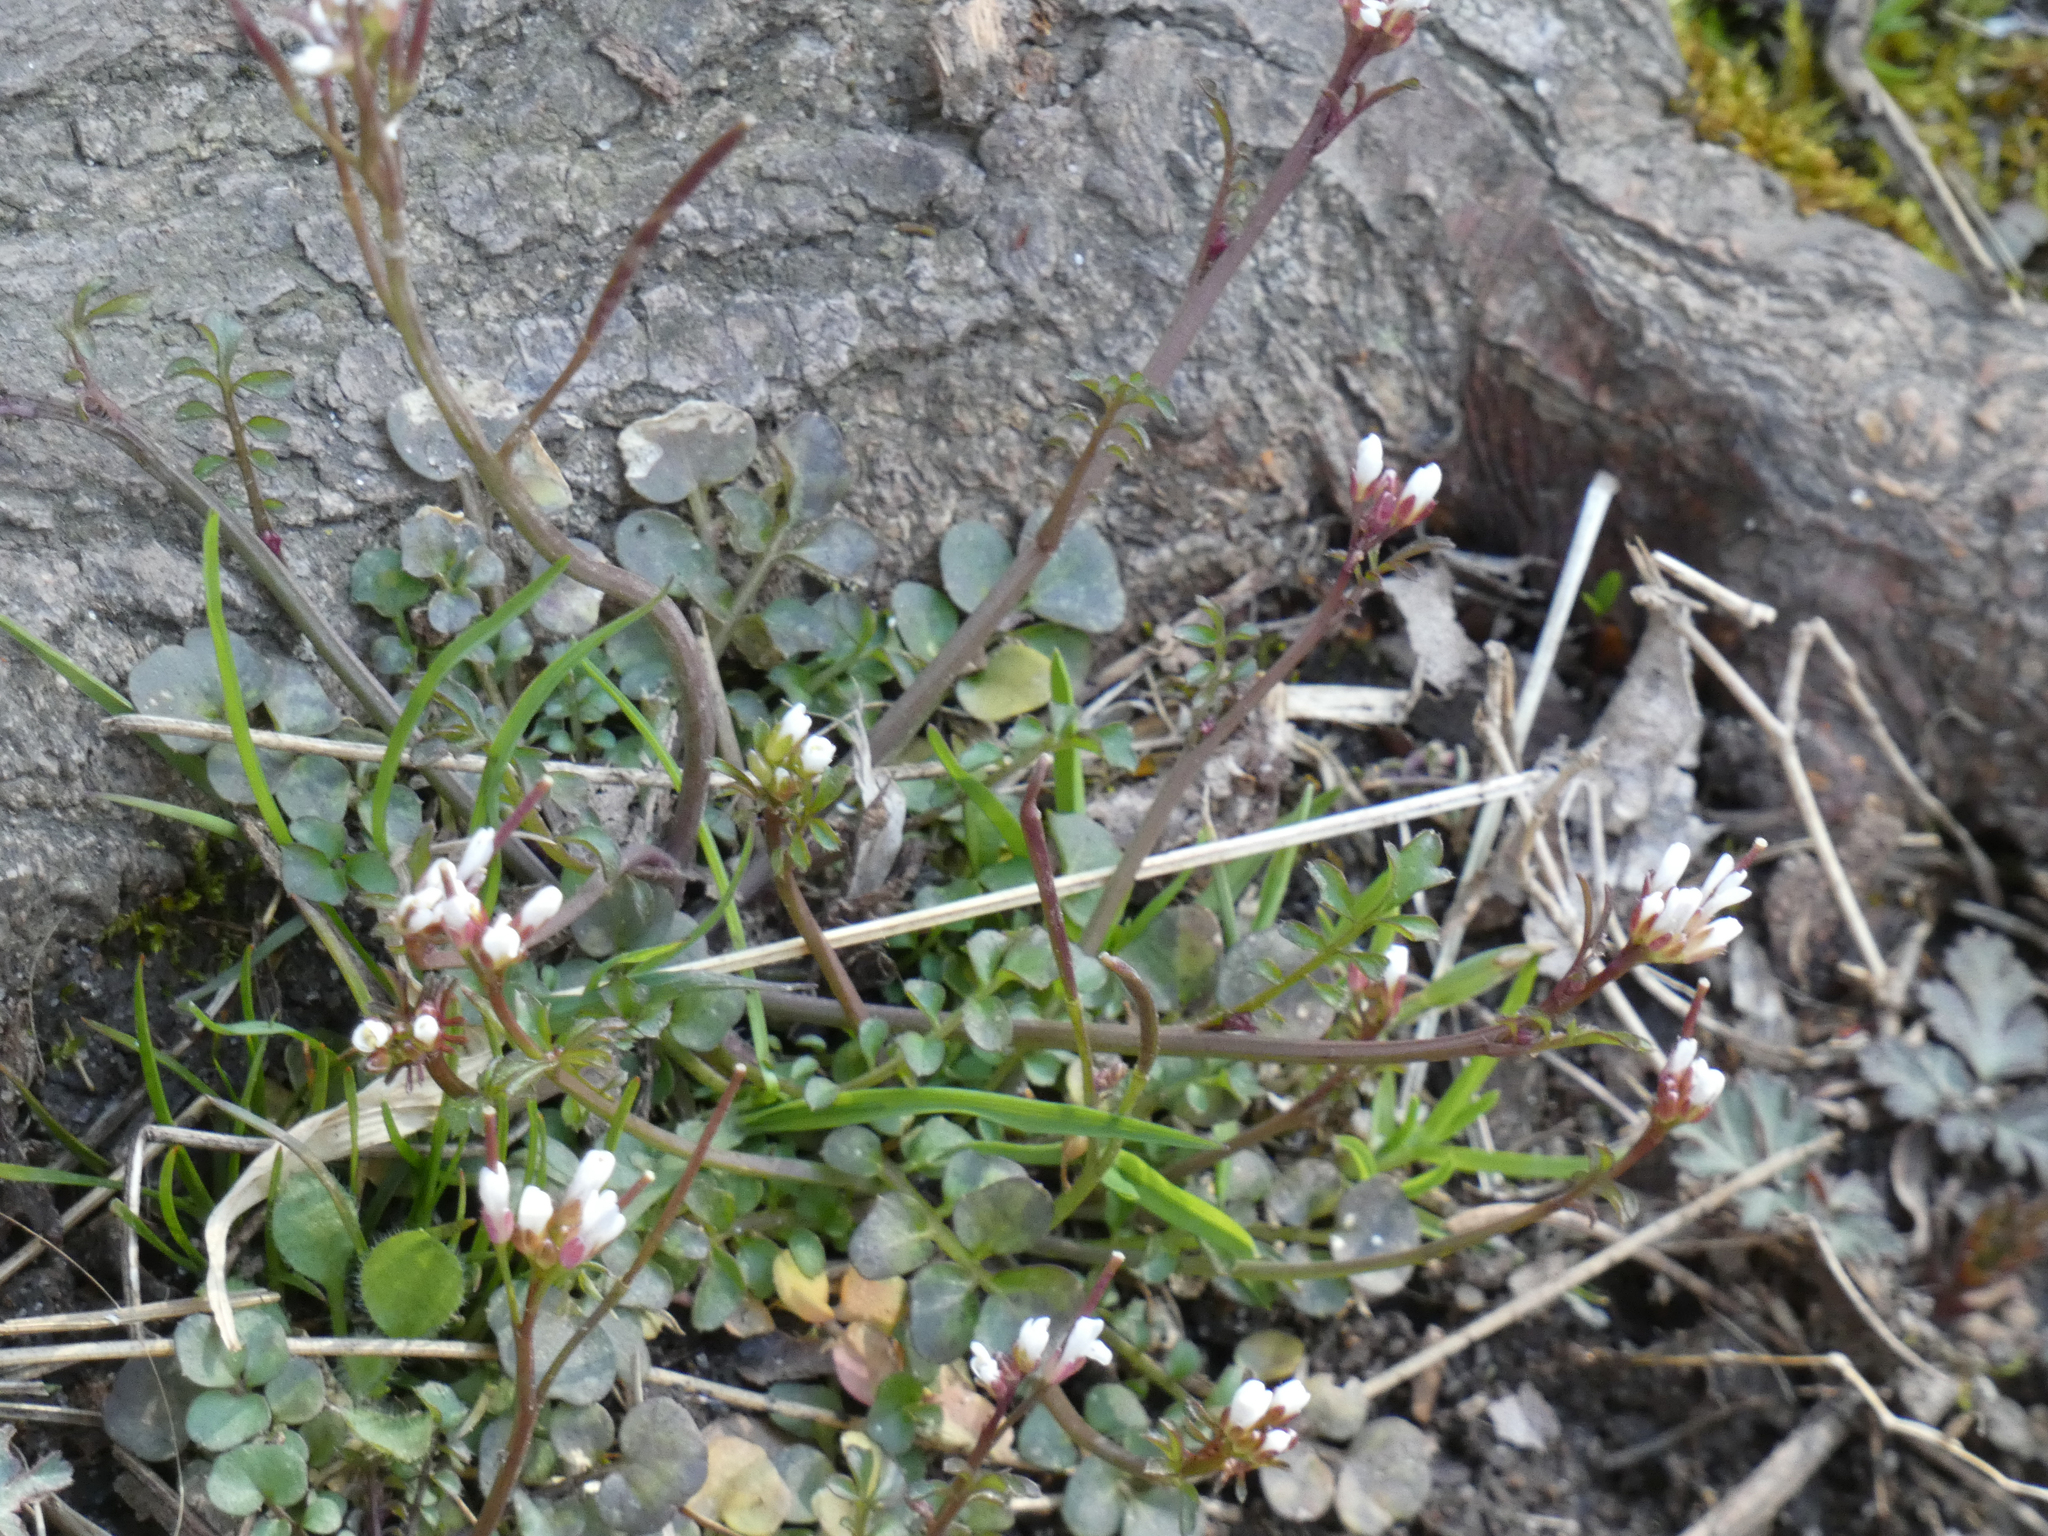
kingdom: Plantae
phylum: Tracheophyta
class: Magnoliopsida
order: Brassicales
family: Brassicaceae
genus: Cardamine
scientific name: Cardamine hirsuta
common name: Hairy bittercress
